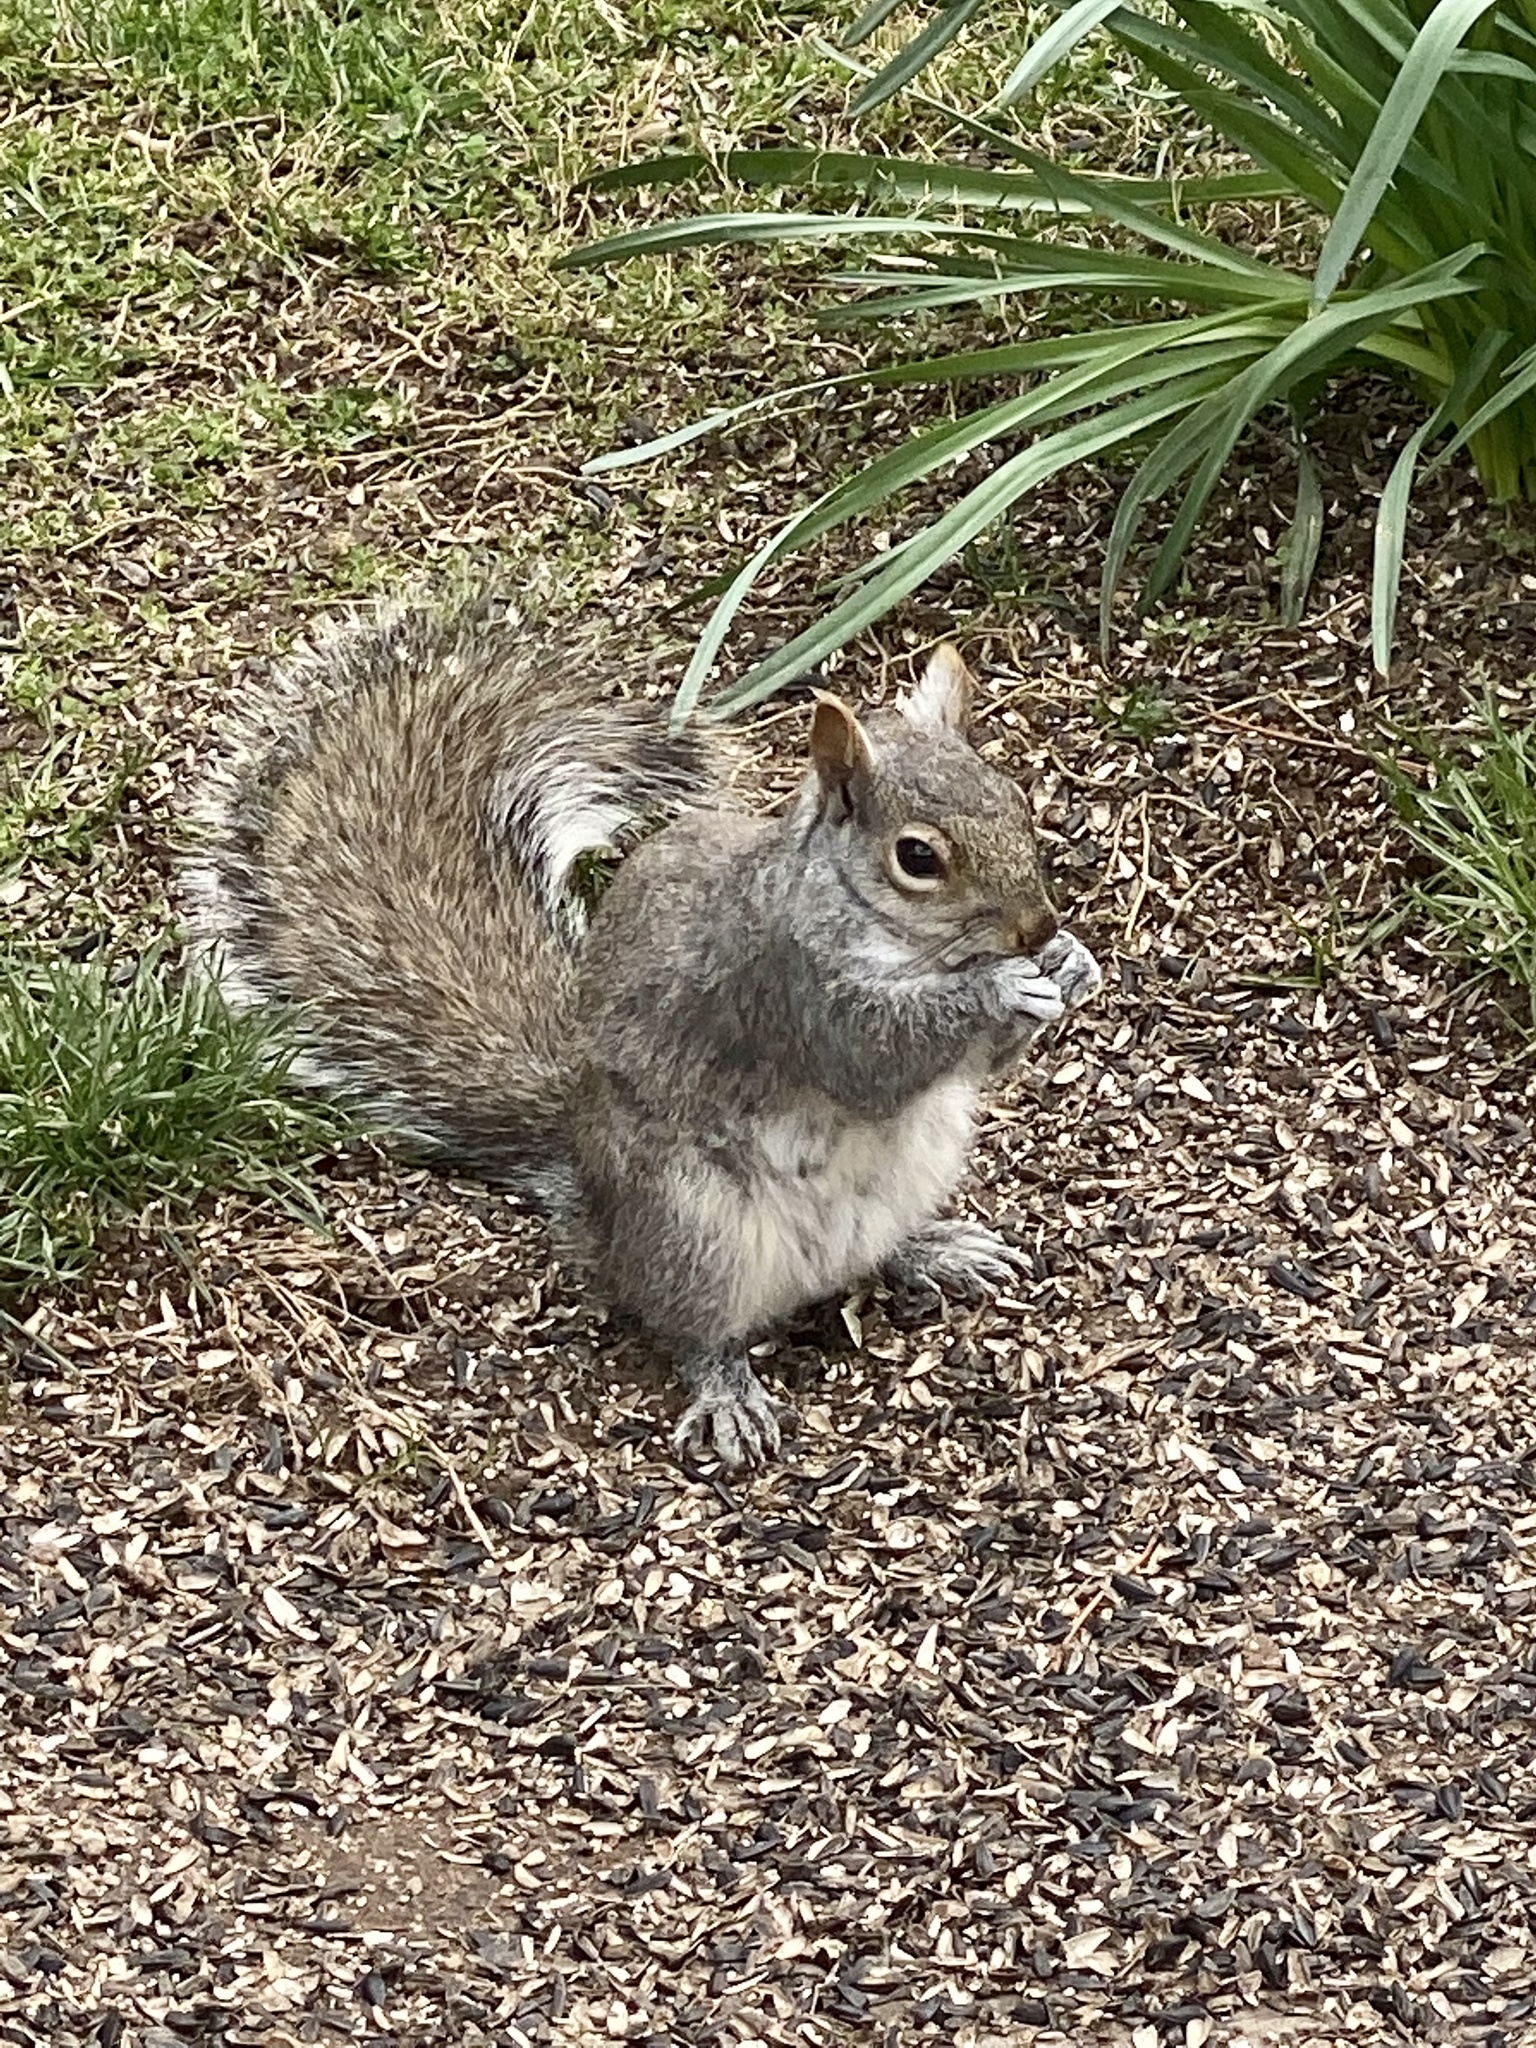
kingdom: Animalia
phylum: Chordata
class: Mammalia
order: Rodentia
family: Sciuridae
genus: Sciurus
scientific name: Sciurus carolinensis
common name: Eastern gray squirrel
